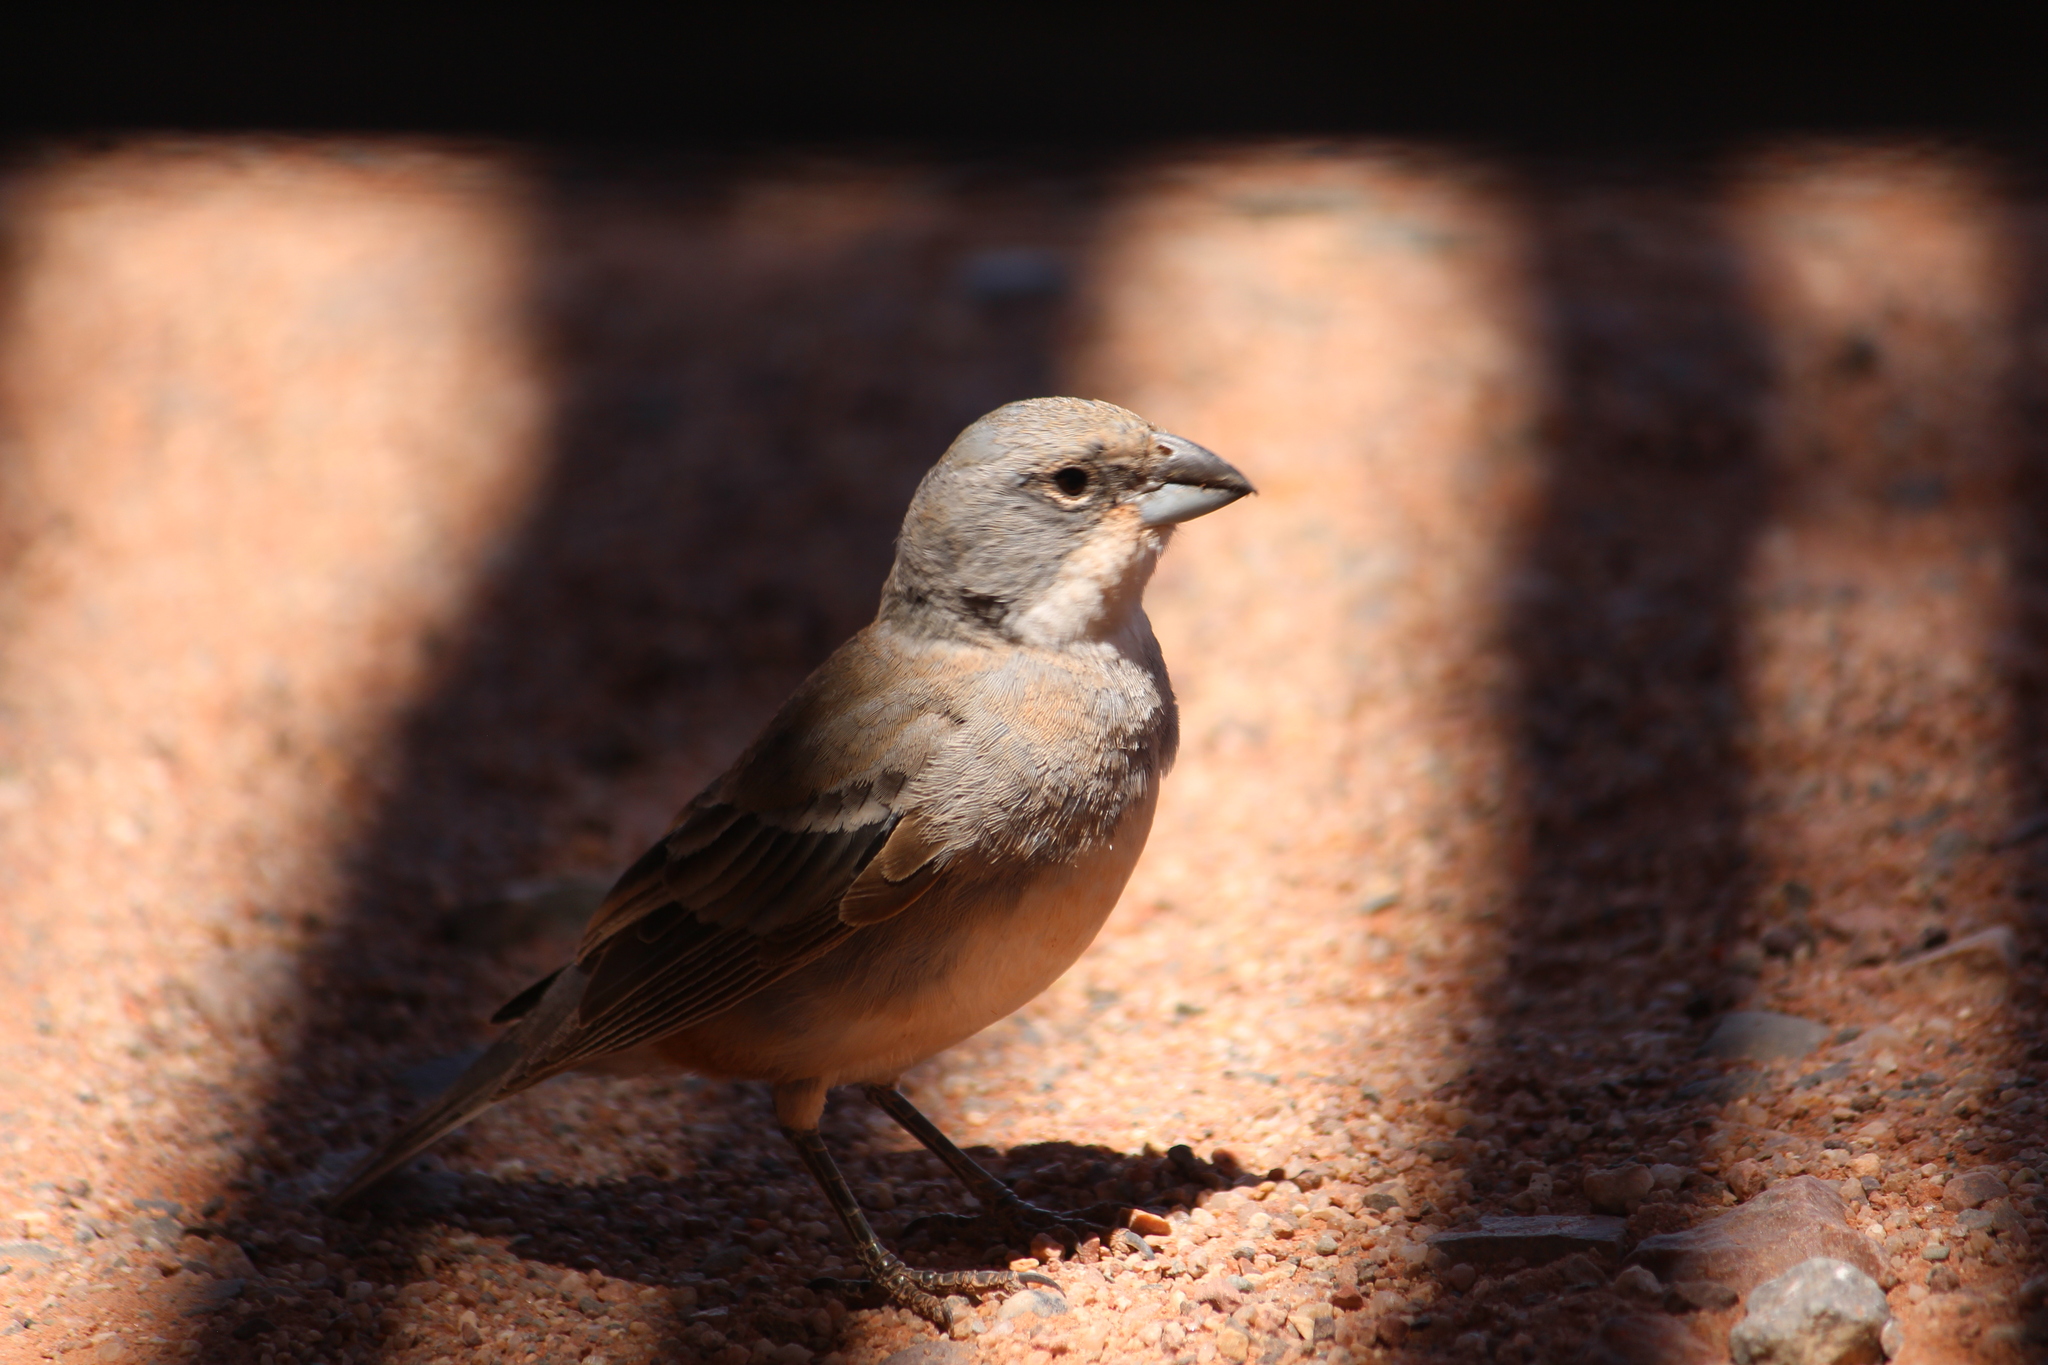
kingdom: Animalia
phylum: Chordata
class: Aves
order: Passeriformes
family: Thraupidae
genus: Diuca
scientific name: Diuca diuca
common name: Common diuca finch
